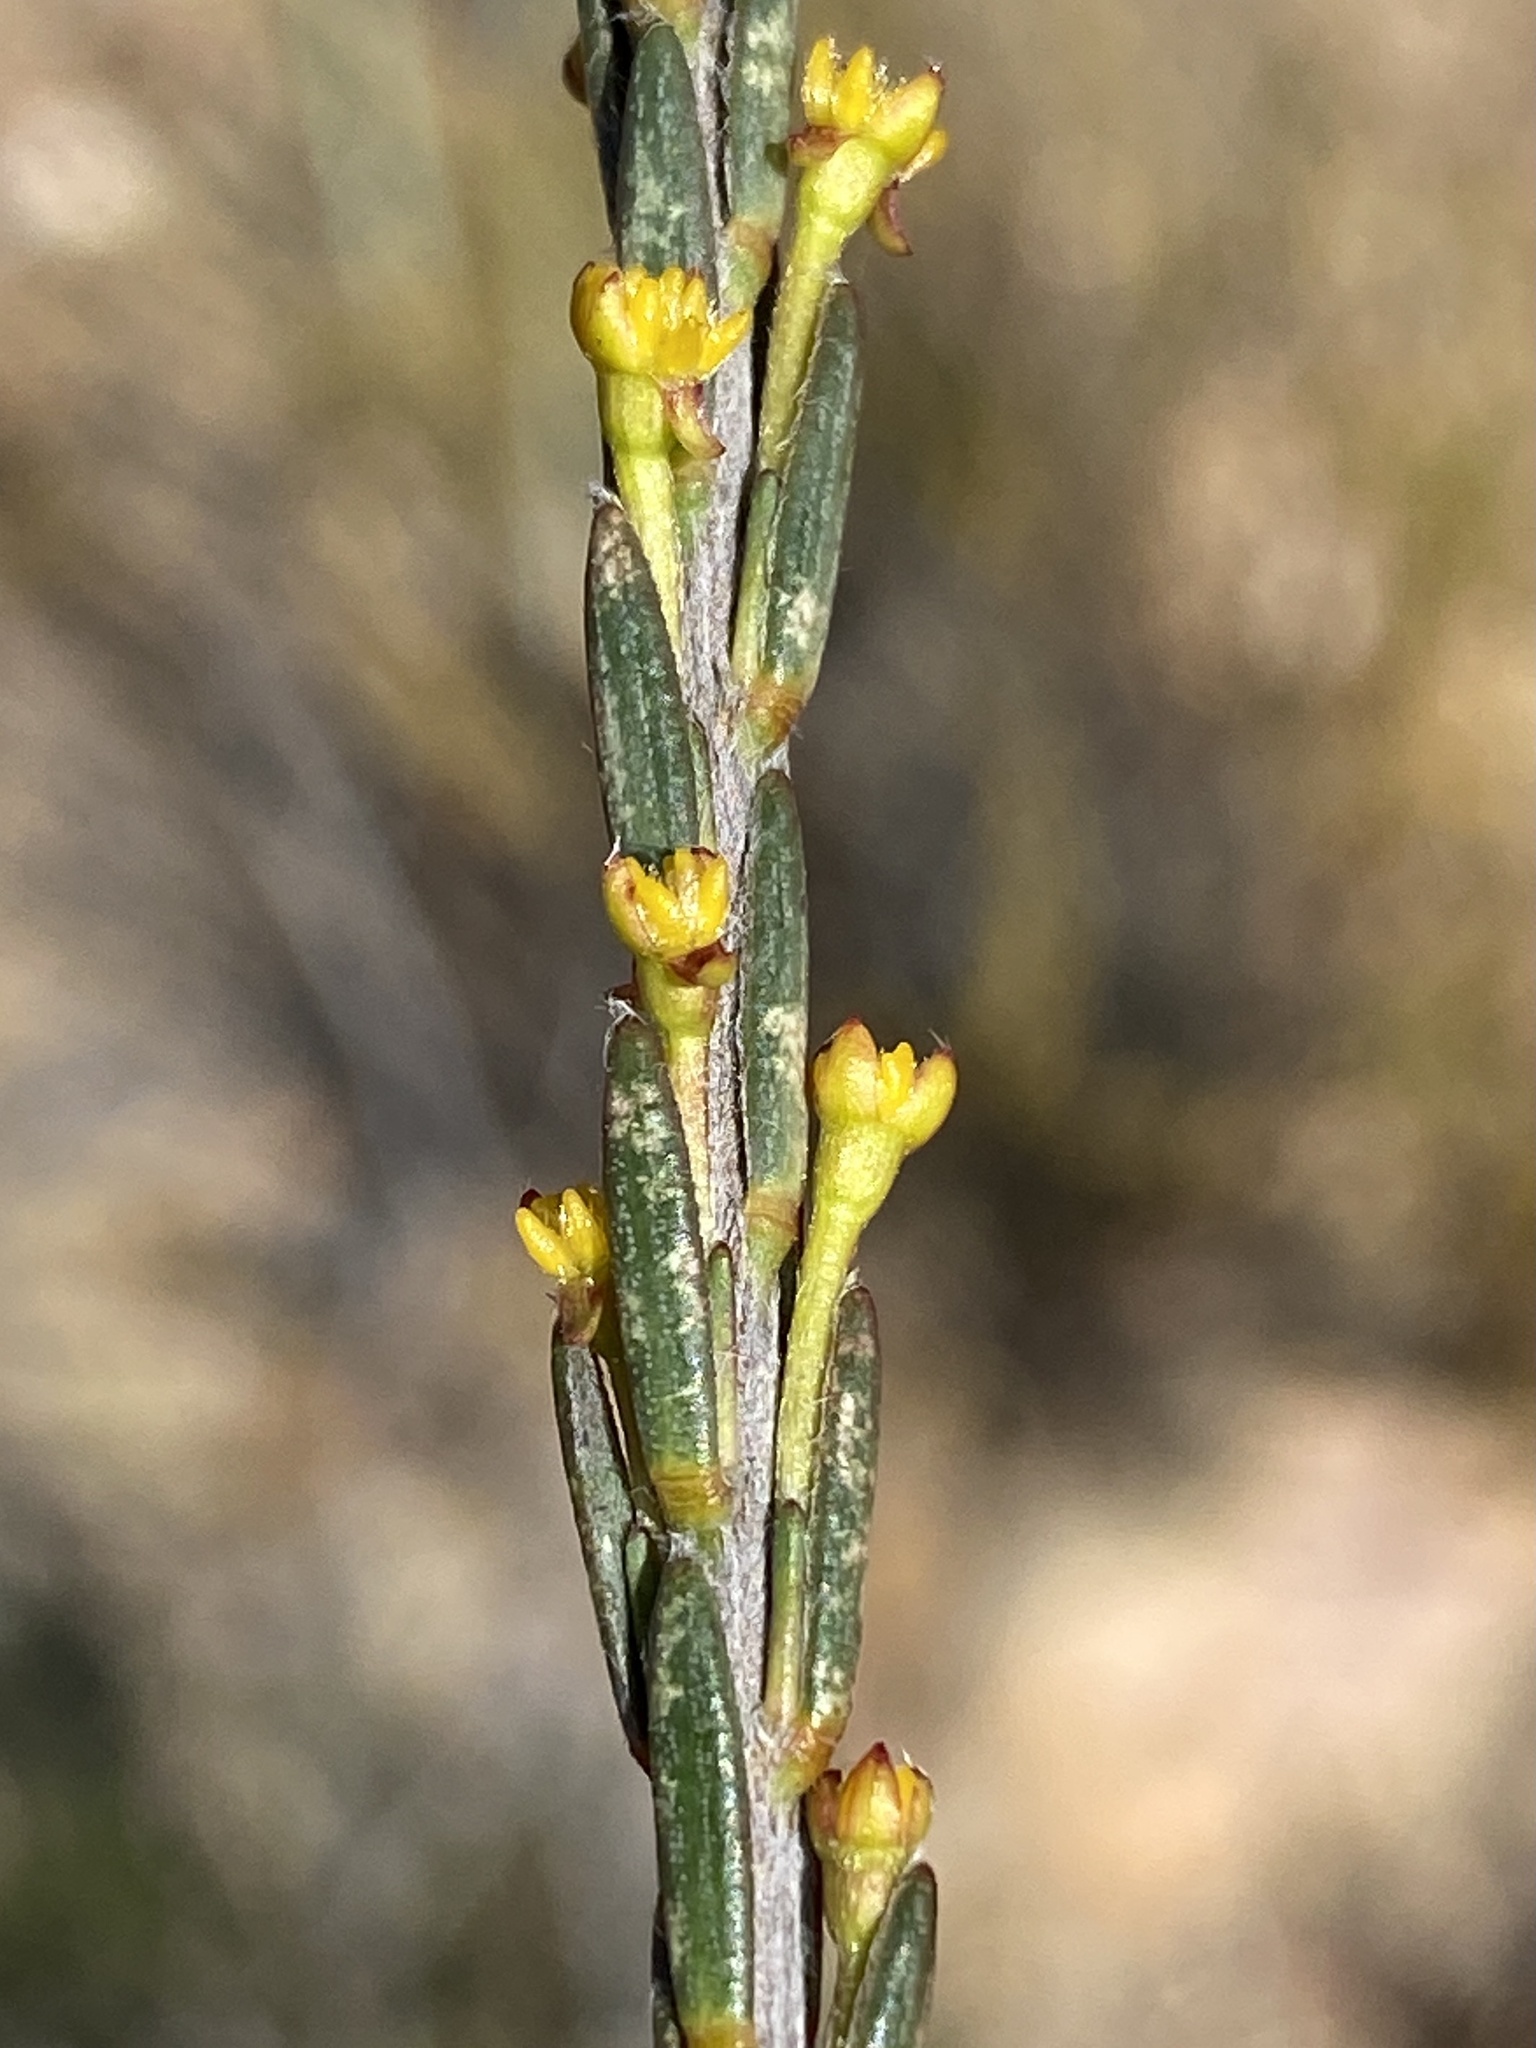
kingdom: Plantae
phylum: Tracheophyta
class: Magnoliopsida
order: Malvales
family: Thymelaeaceae
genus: Struthiola
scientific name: Struthiola eckloniana
